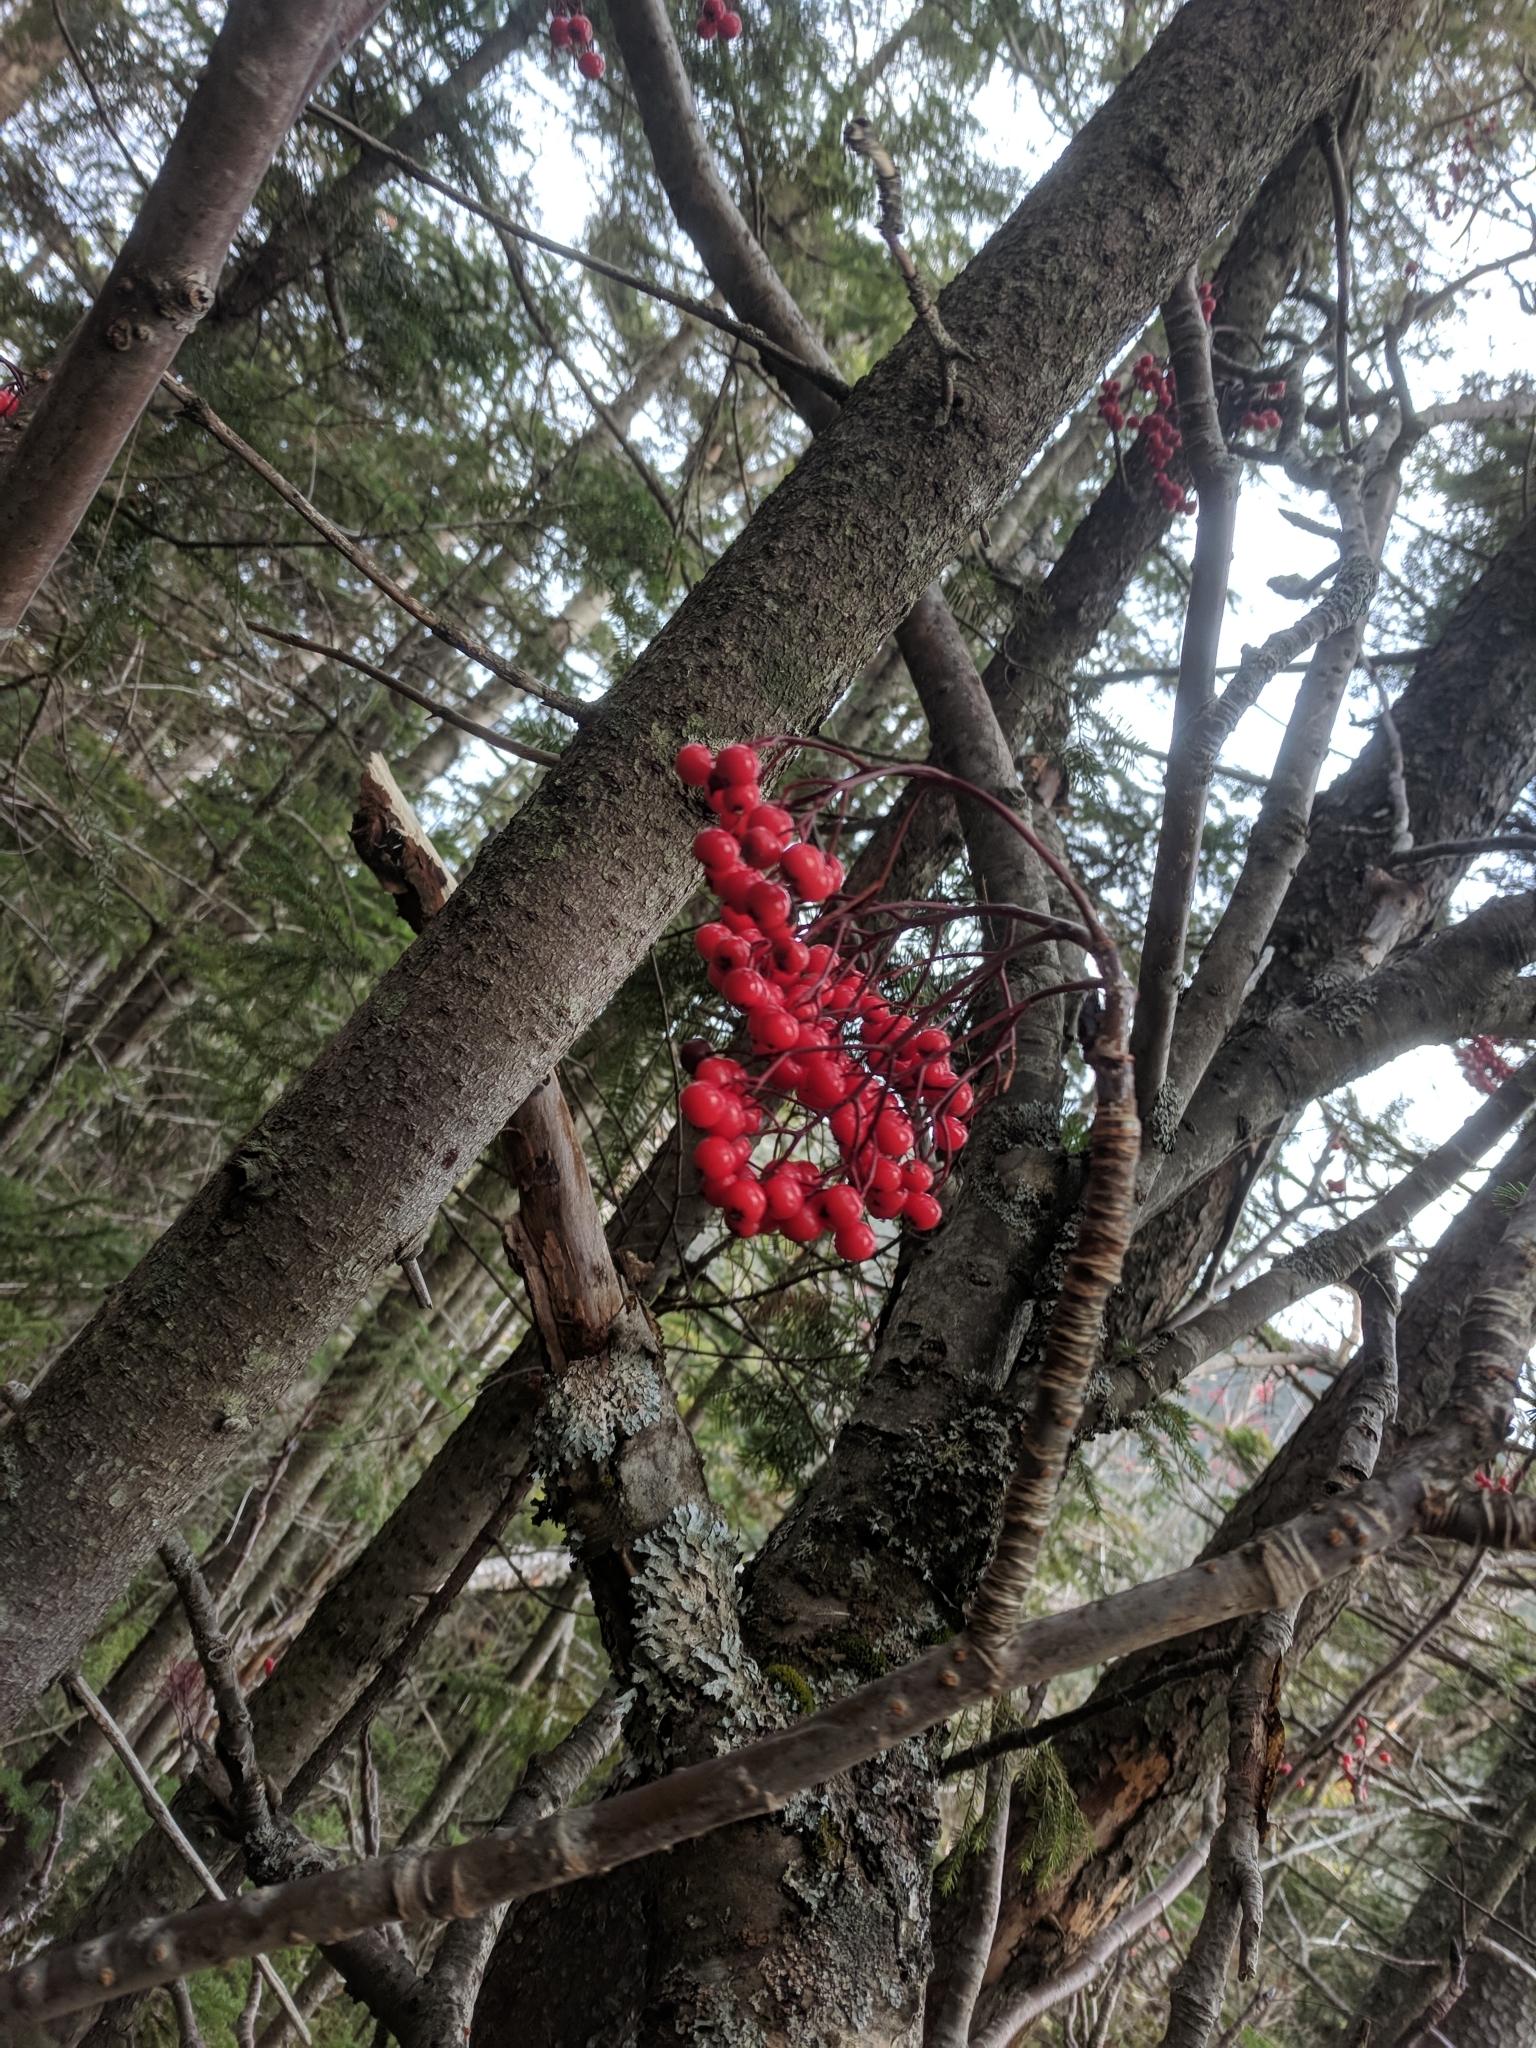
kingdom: Plantae
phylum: Tracheophyta
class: Magnoliopsida
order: Rosales
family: Rosaceae
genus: Sorbus
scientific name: Sorbus americana
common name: American mountain-ash
